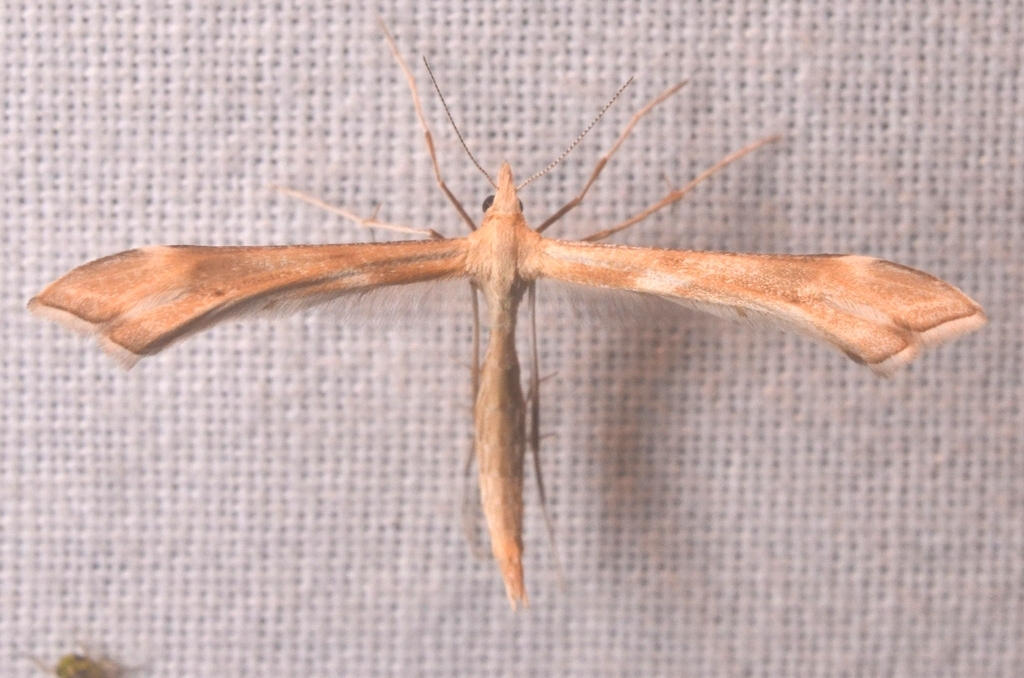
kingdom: Animalia
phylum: Arthropoda
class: Insecta
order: Lepidoptera
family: Pterophoridae
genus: Gillmeria
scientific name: Gillmeria pallidactyla
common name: Yarrow plume
